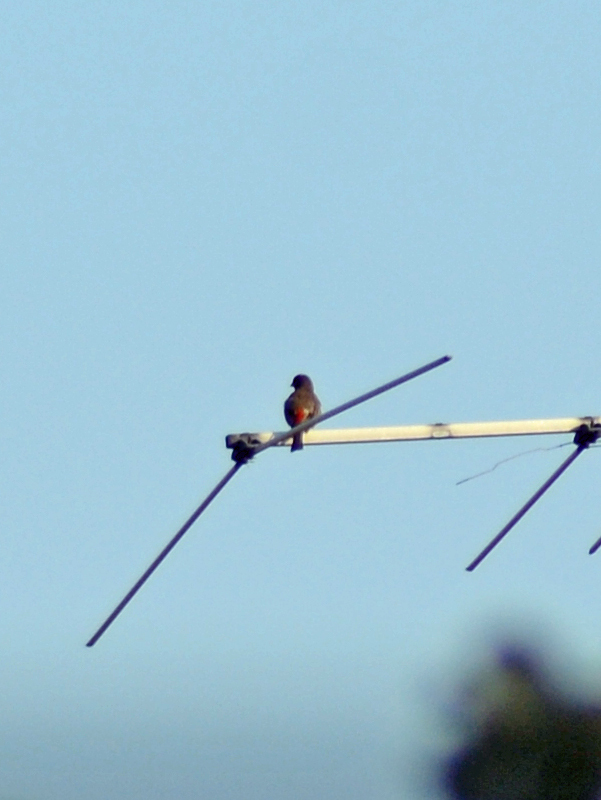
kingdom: Animalia
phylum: Chordata
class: Aves
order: Passeriformes
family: Fringillidae
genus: Haemorhous
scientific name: Haemorhous mexicanus
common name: House finch
